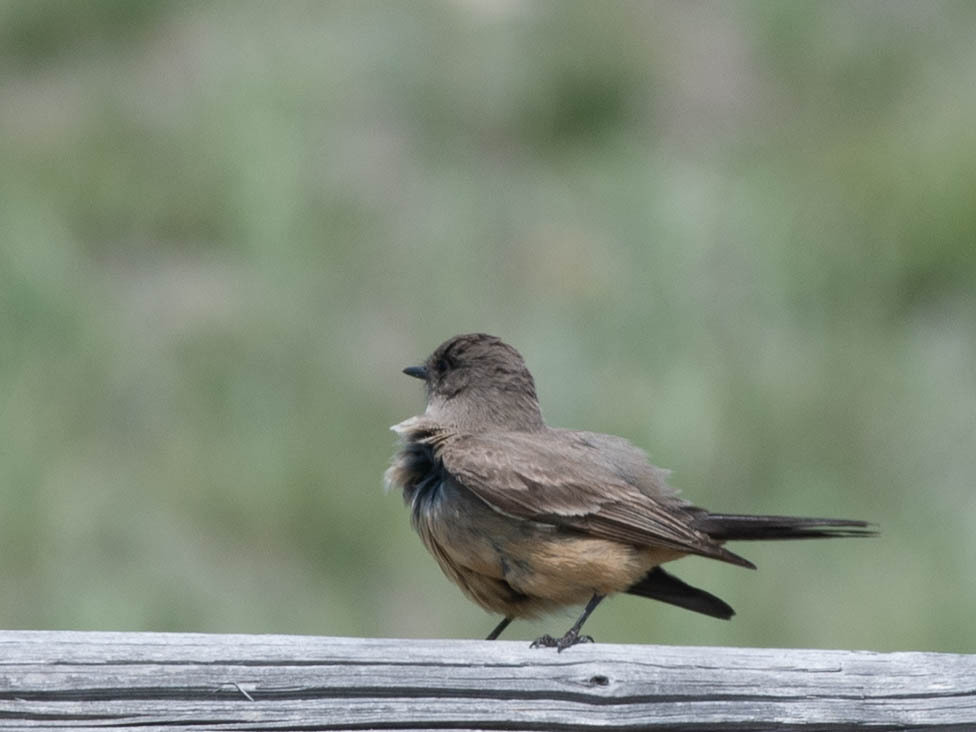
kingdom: Animalia
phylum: Chordata
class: Aves
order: Passeriformes
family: Tyrannidae
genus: Sayornis
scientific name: Sayornis saya
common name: Say's phoebe
